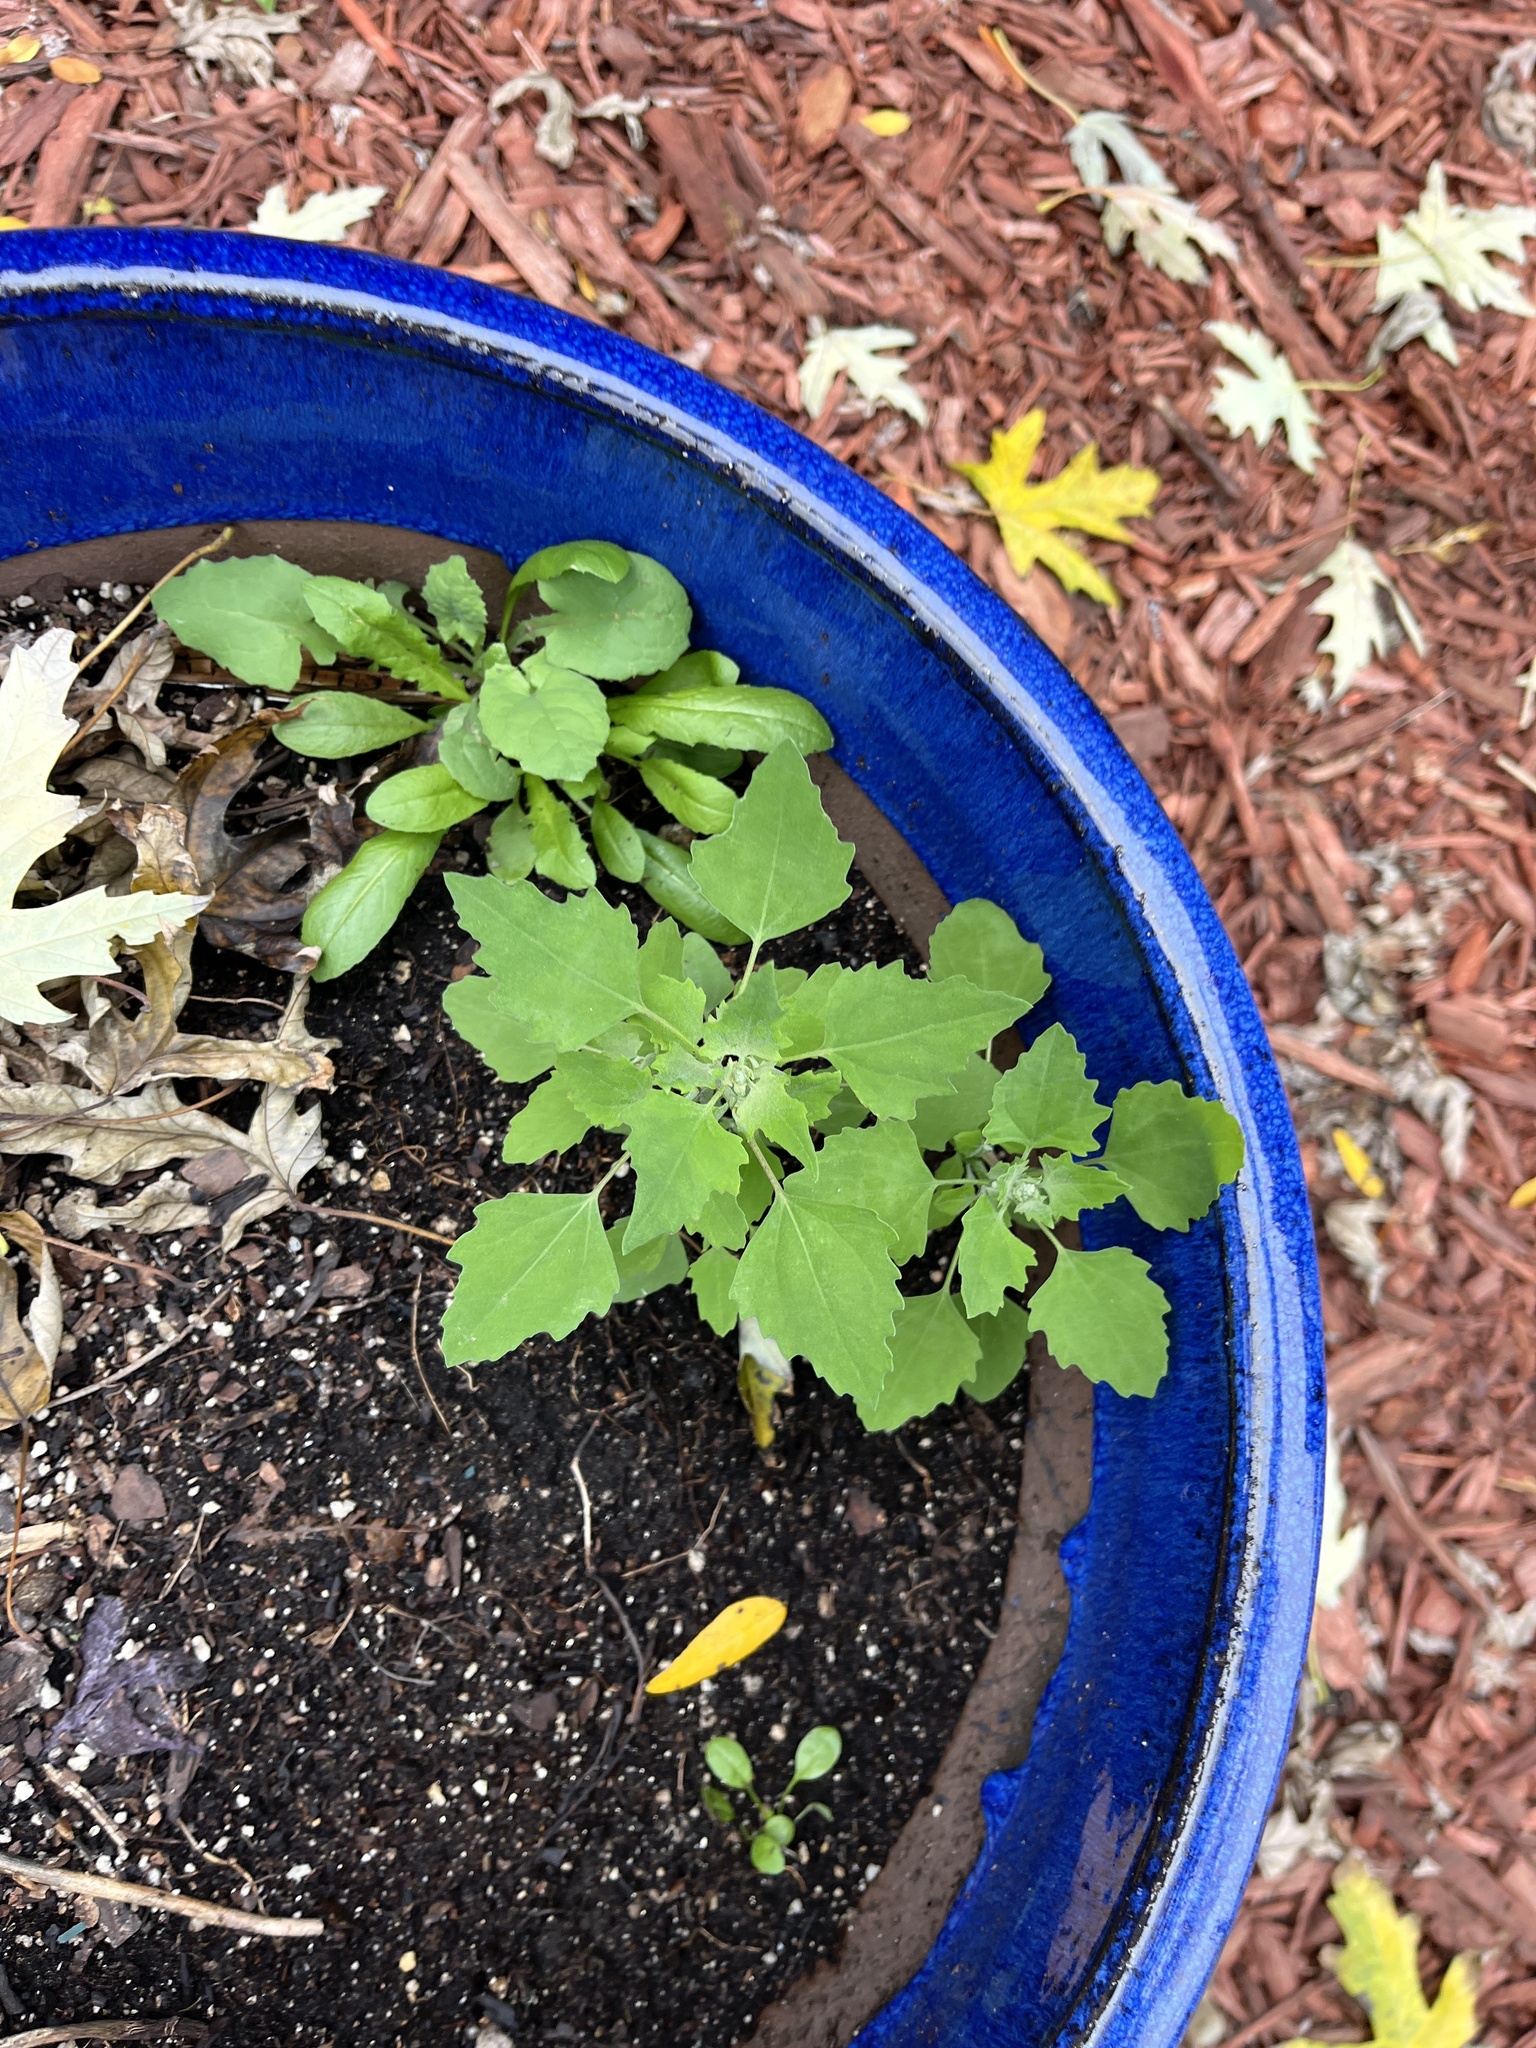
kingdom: Plantae
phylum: Tracheophyta
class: Magnoliopsida
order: Caryophyllales
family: Amaranthaceae
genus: Chenopodium
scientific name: Chenopodium album
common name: Fat-hen
